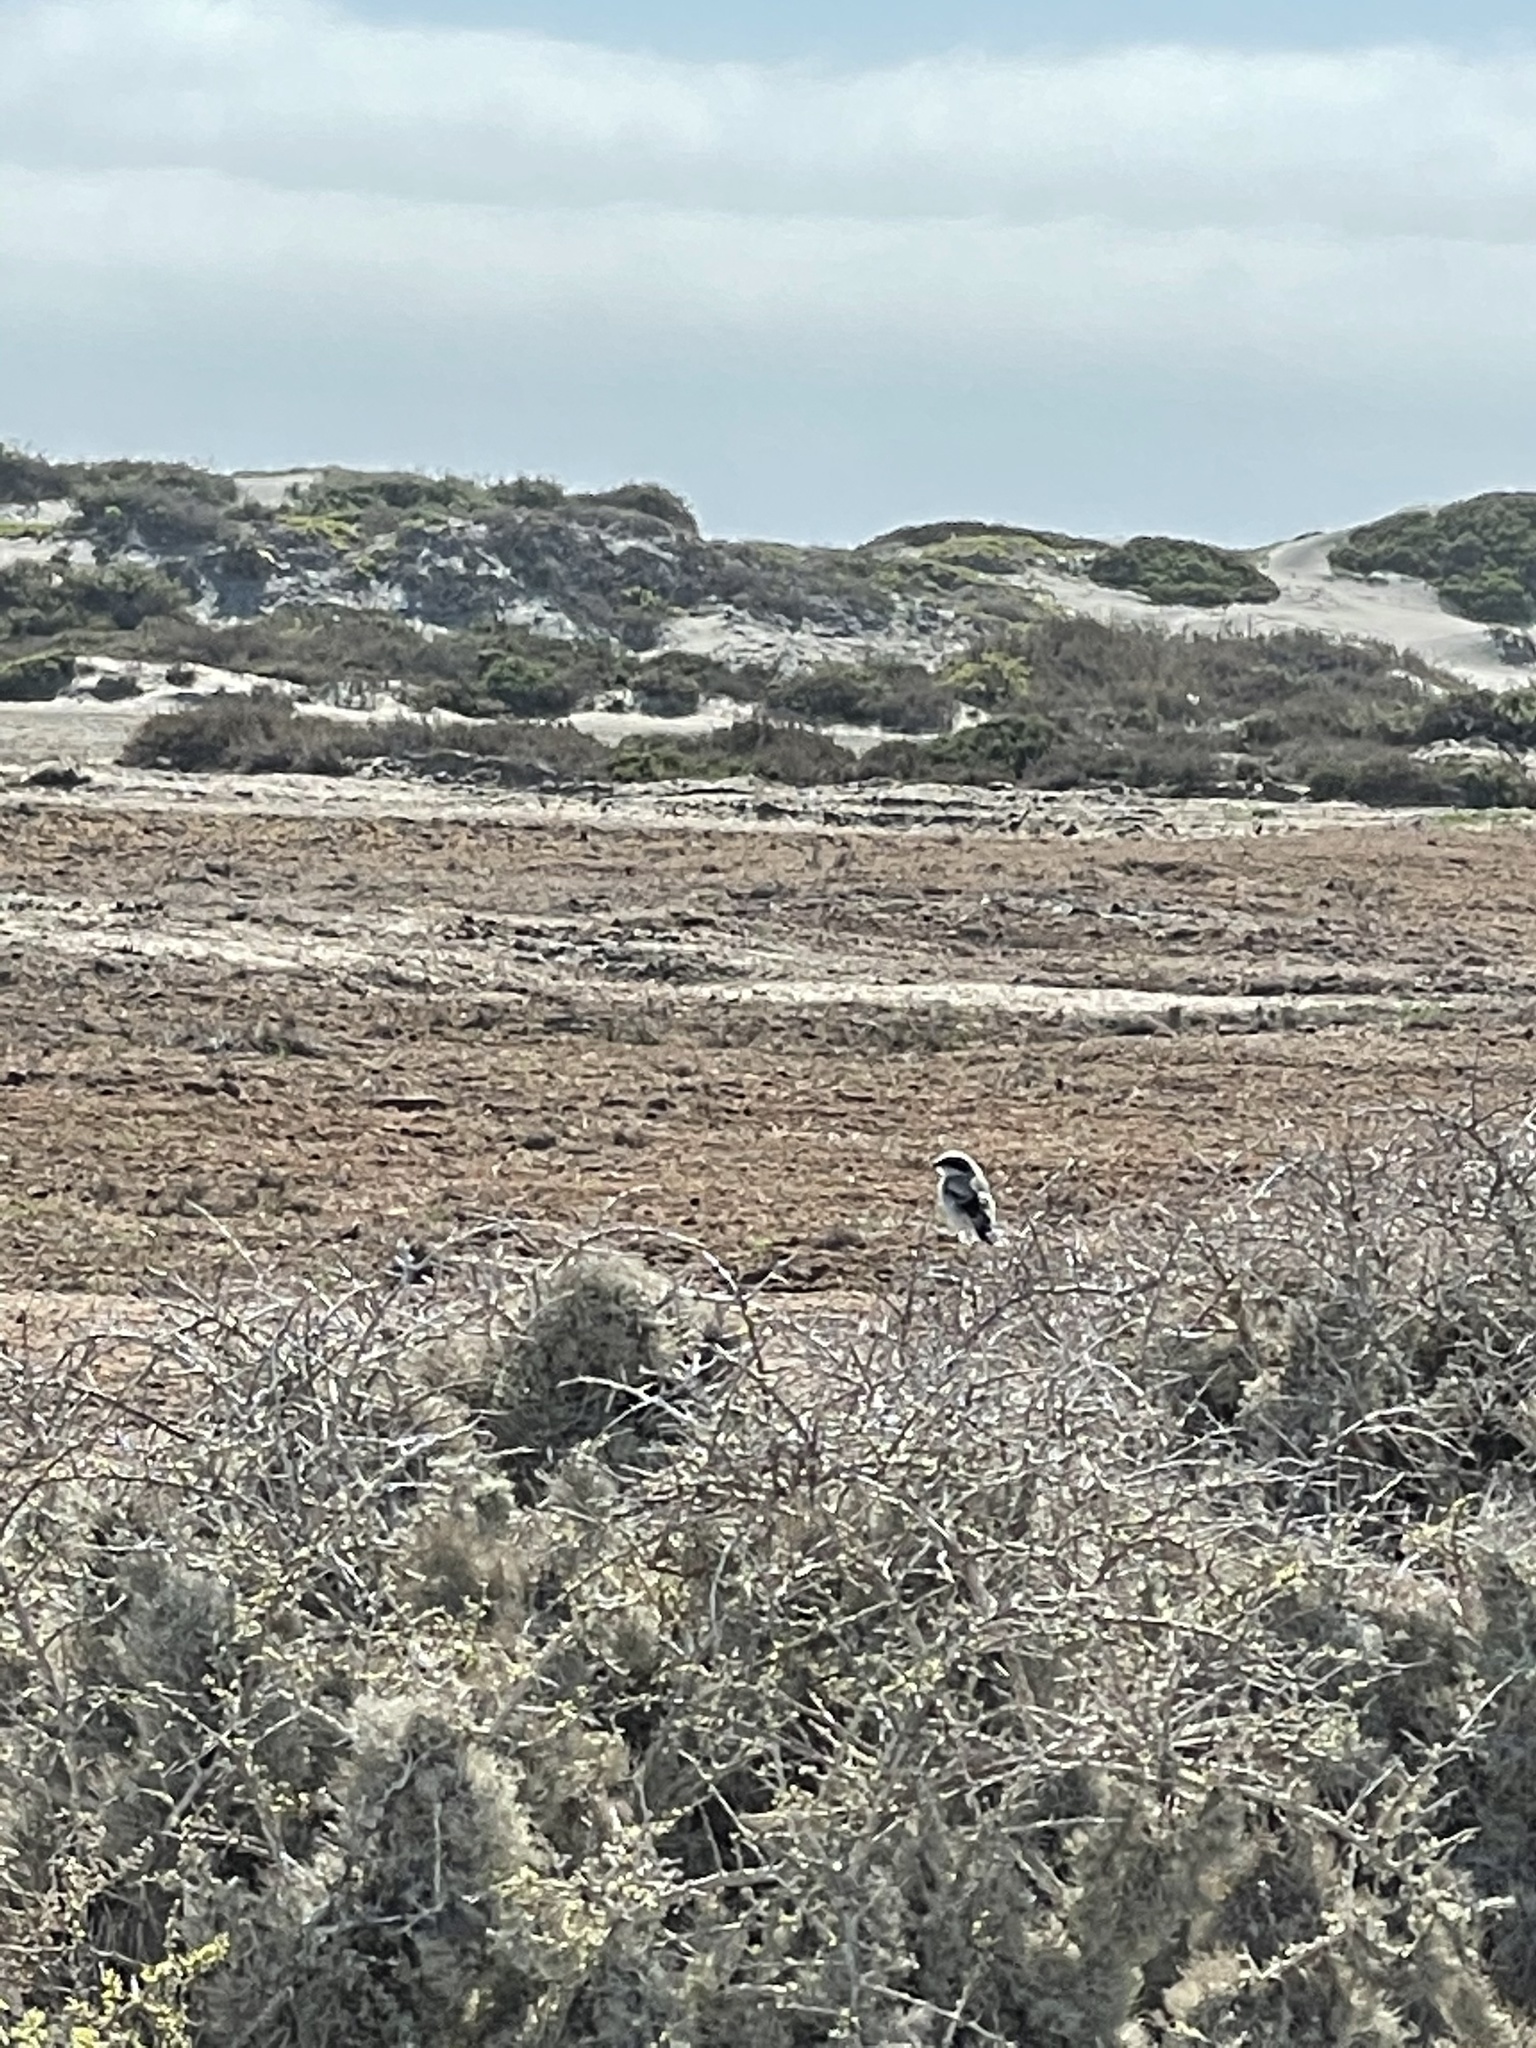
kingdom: Animalia
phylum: Chordata
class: Aves
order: Passeriformes
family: Laniidae
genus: Lanius
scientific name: Lanius ludovicianus
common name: Loggerhead shrike
